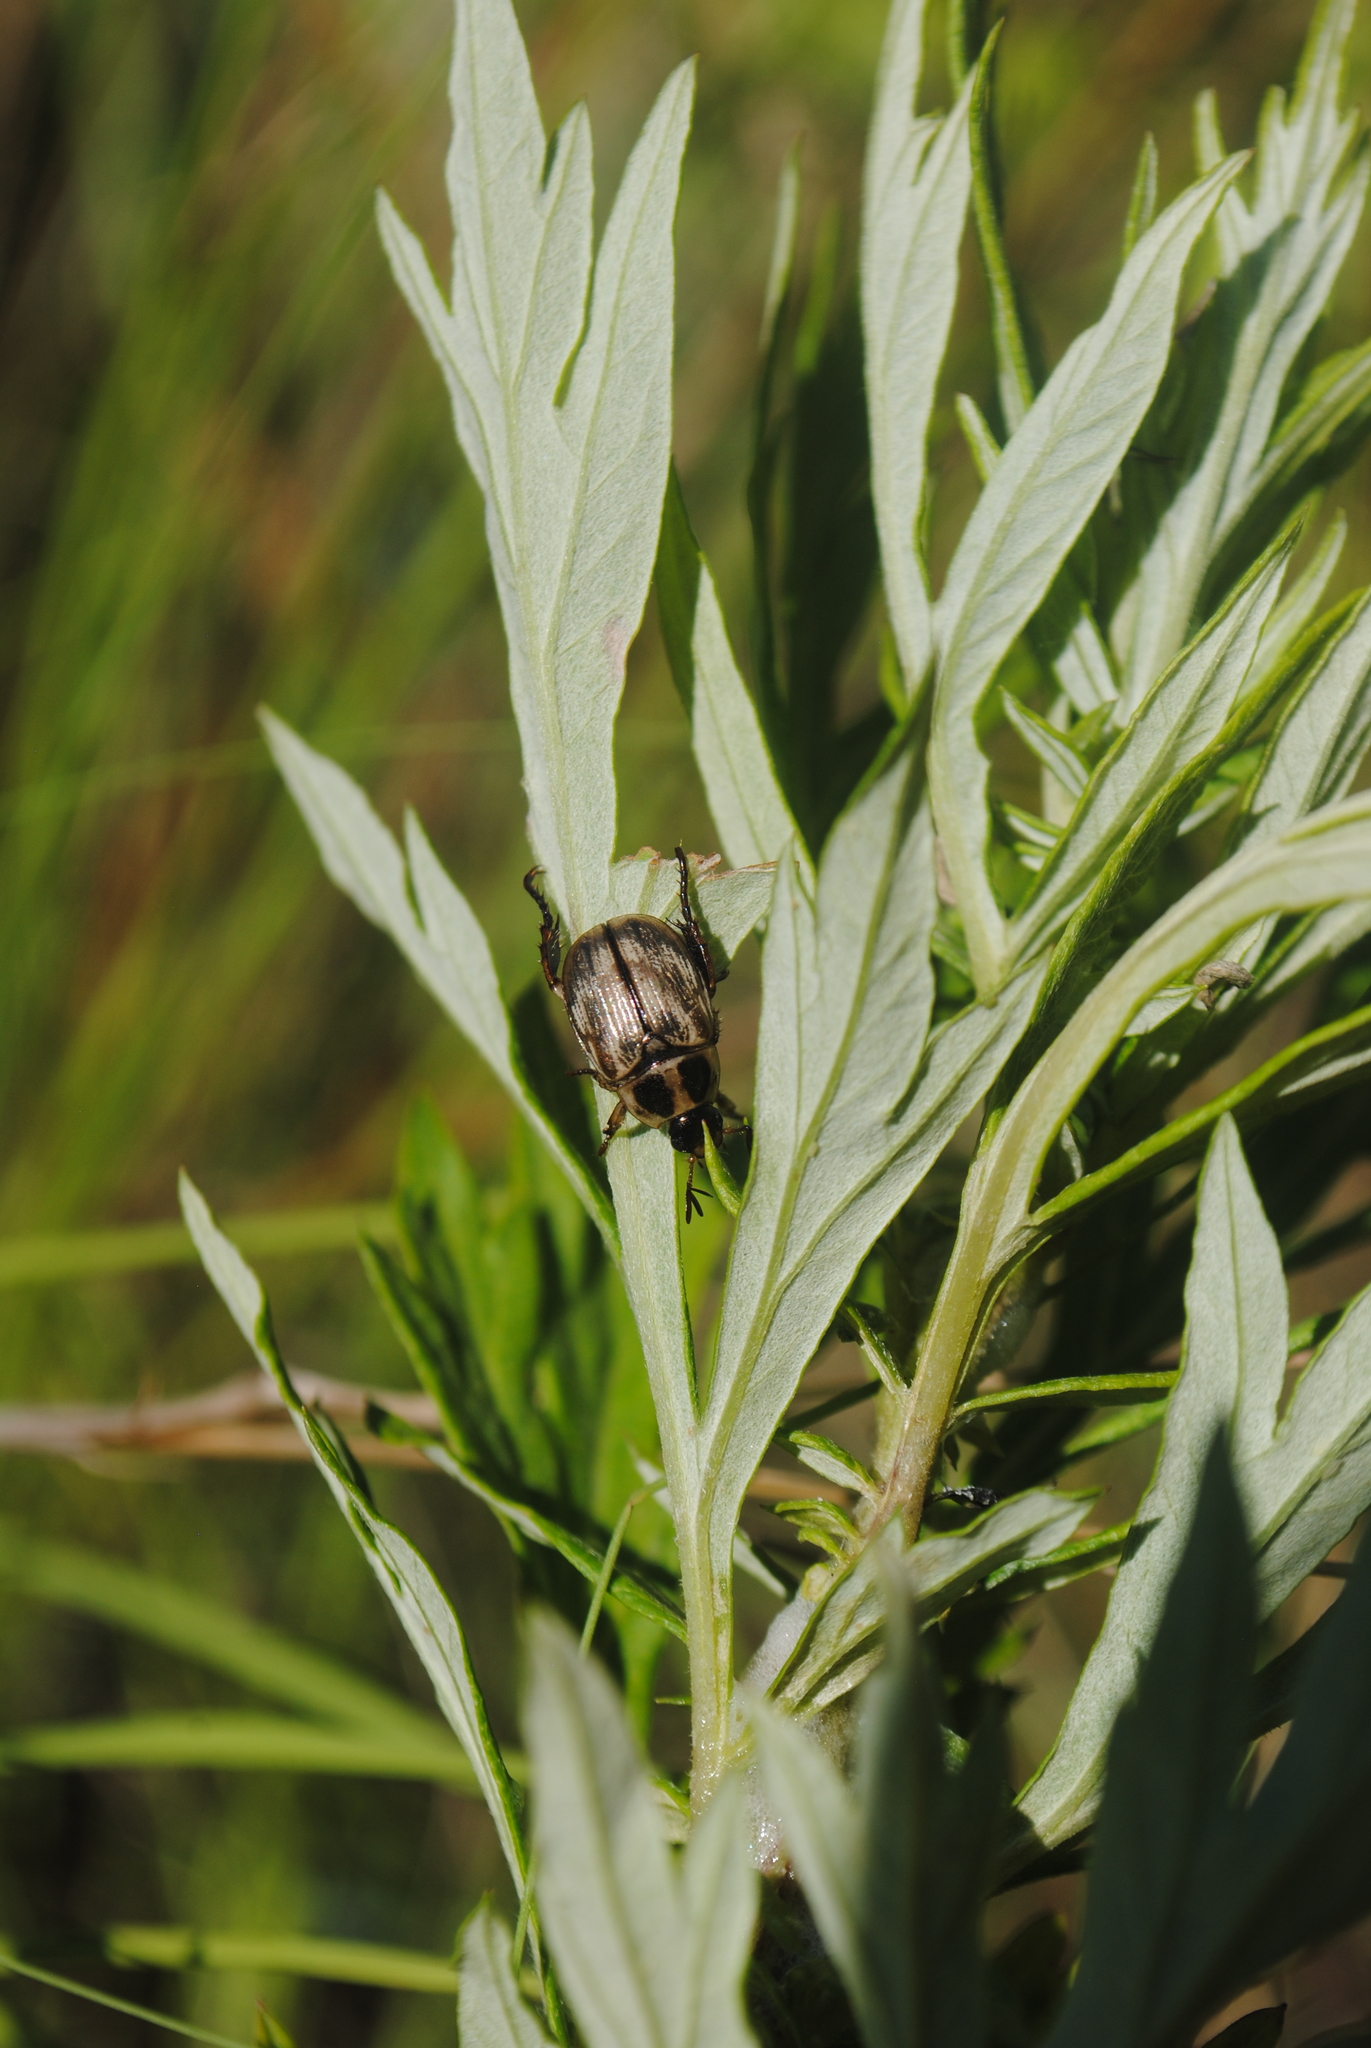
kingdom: Animalia
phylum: Arthropoda
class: Insecta
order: Coleoptera
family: Scarabaeidae
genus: Exomala
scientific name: Exomala orientalis
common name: Oriental beetle
